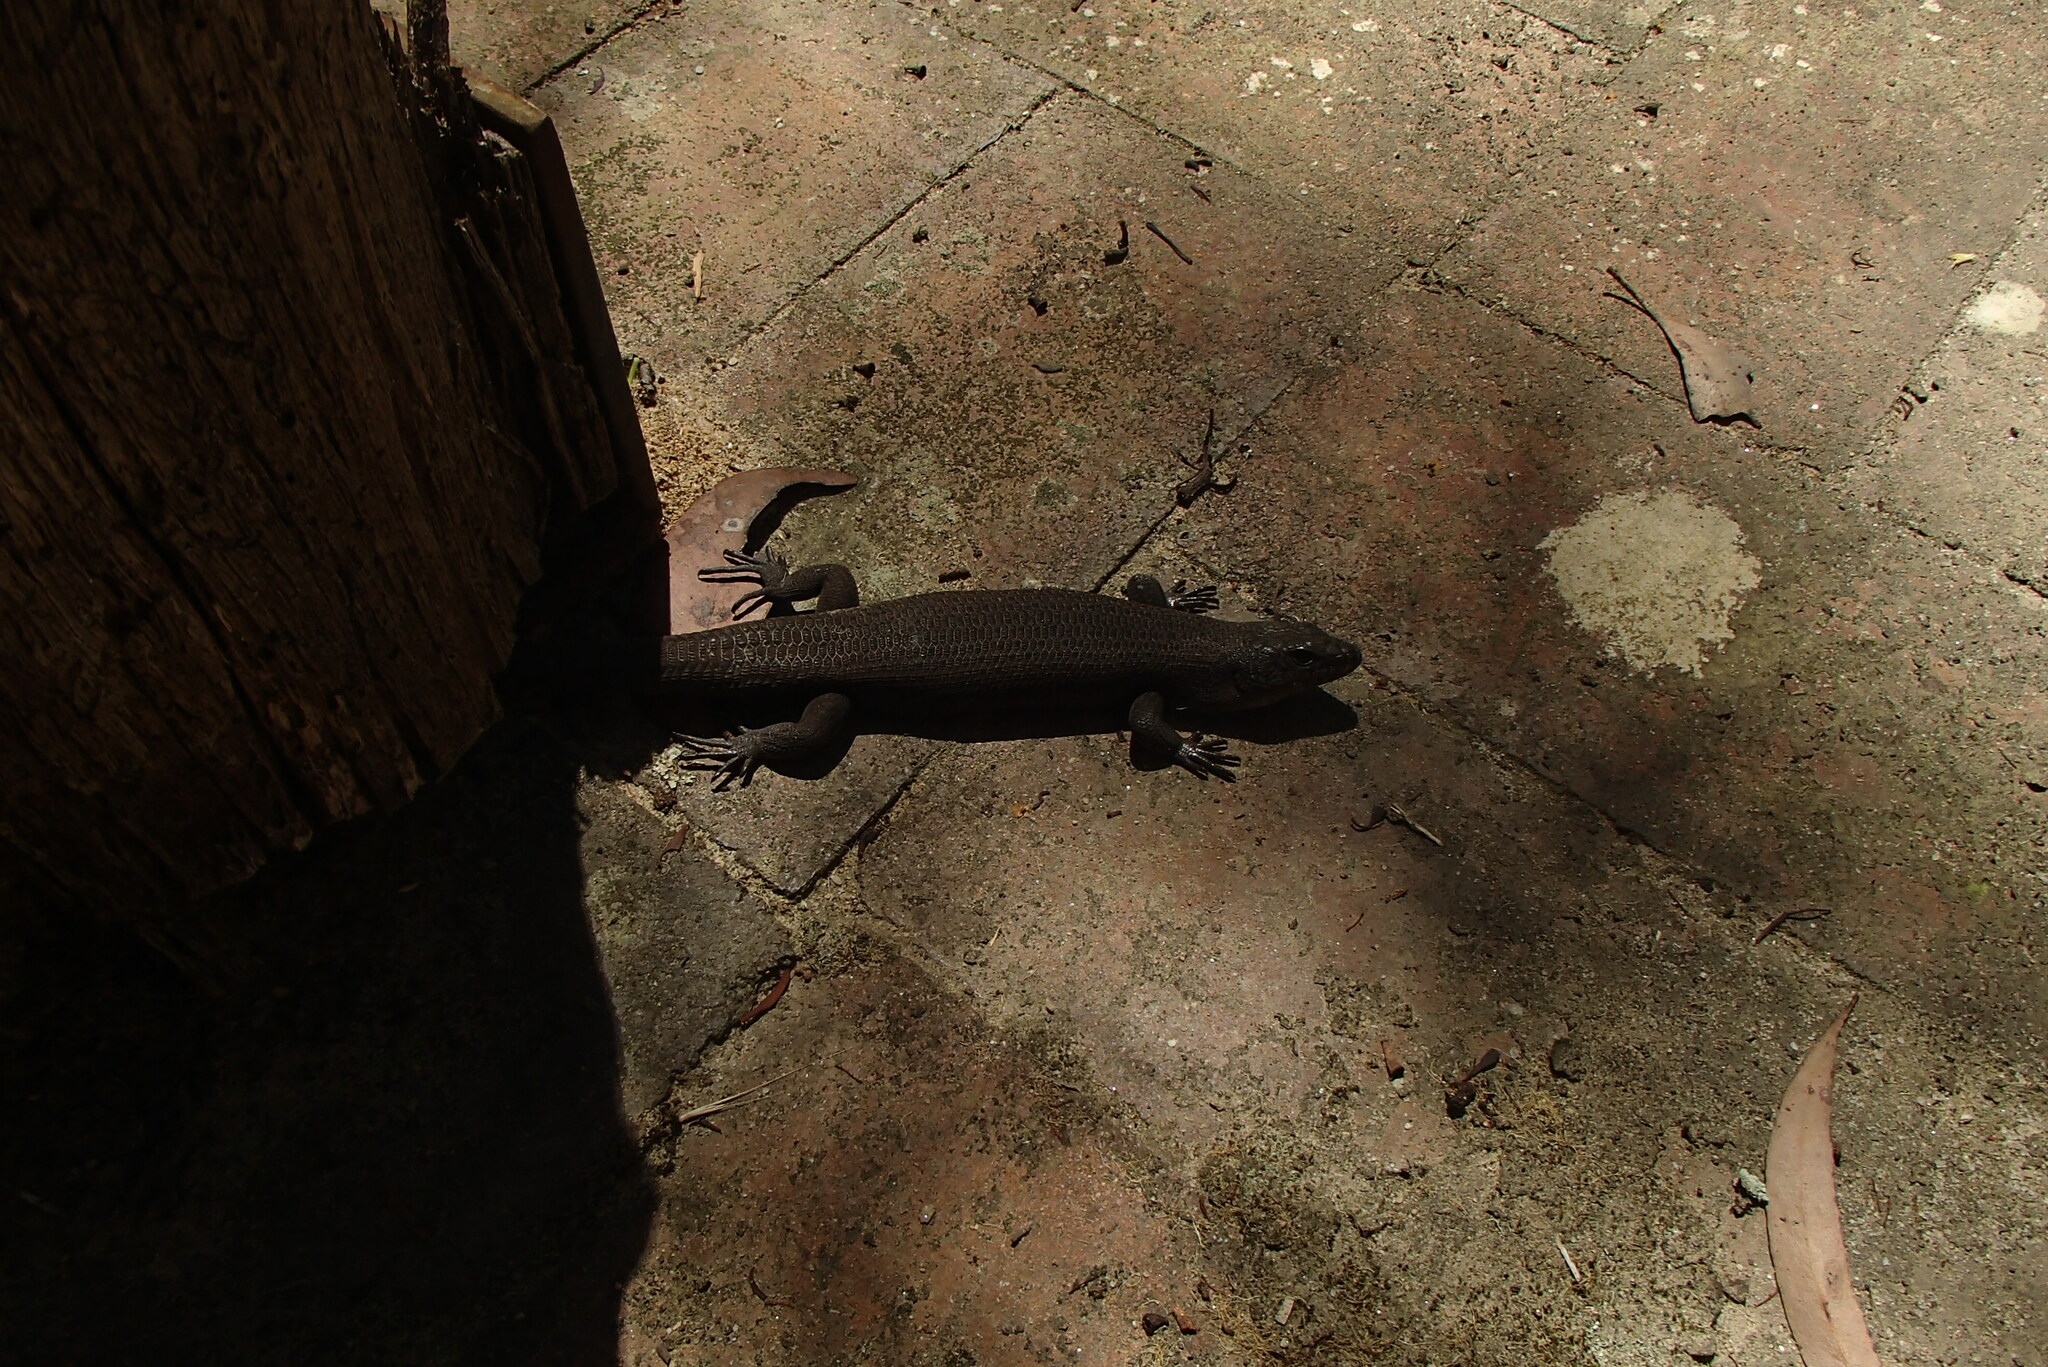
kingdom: Animalia
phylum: Chordata
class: Squamata
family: Scincidae
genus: Egernia
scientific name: Egernia saxatilis
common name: Black crevice-skink
